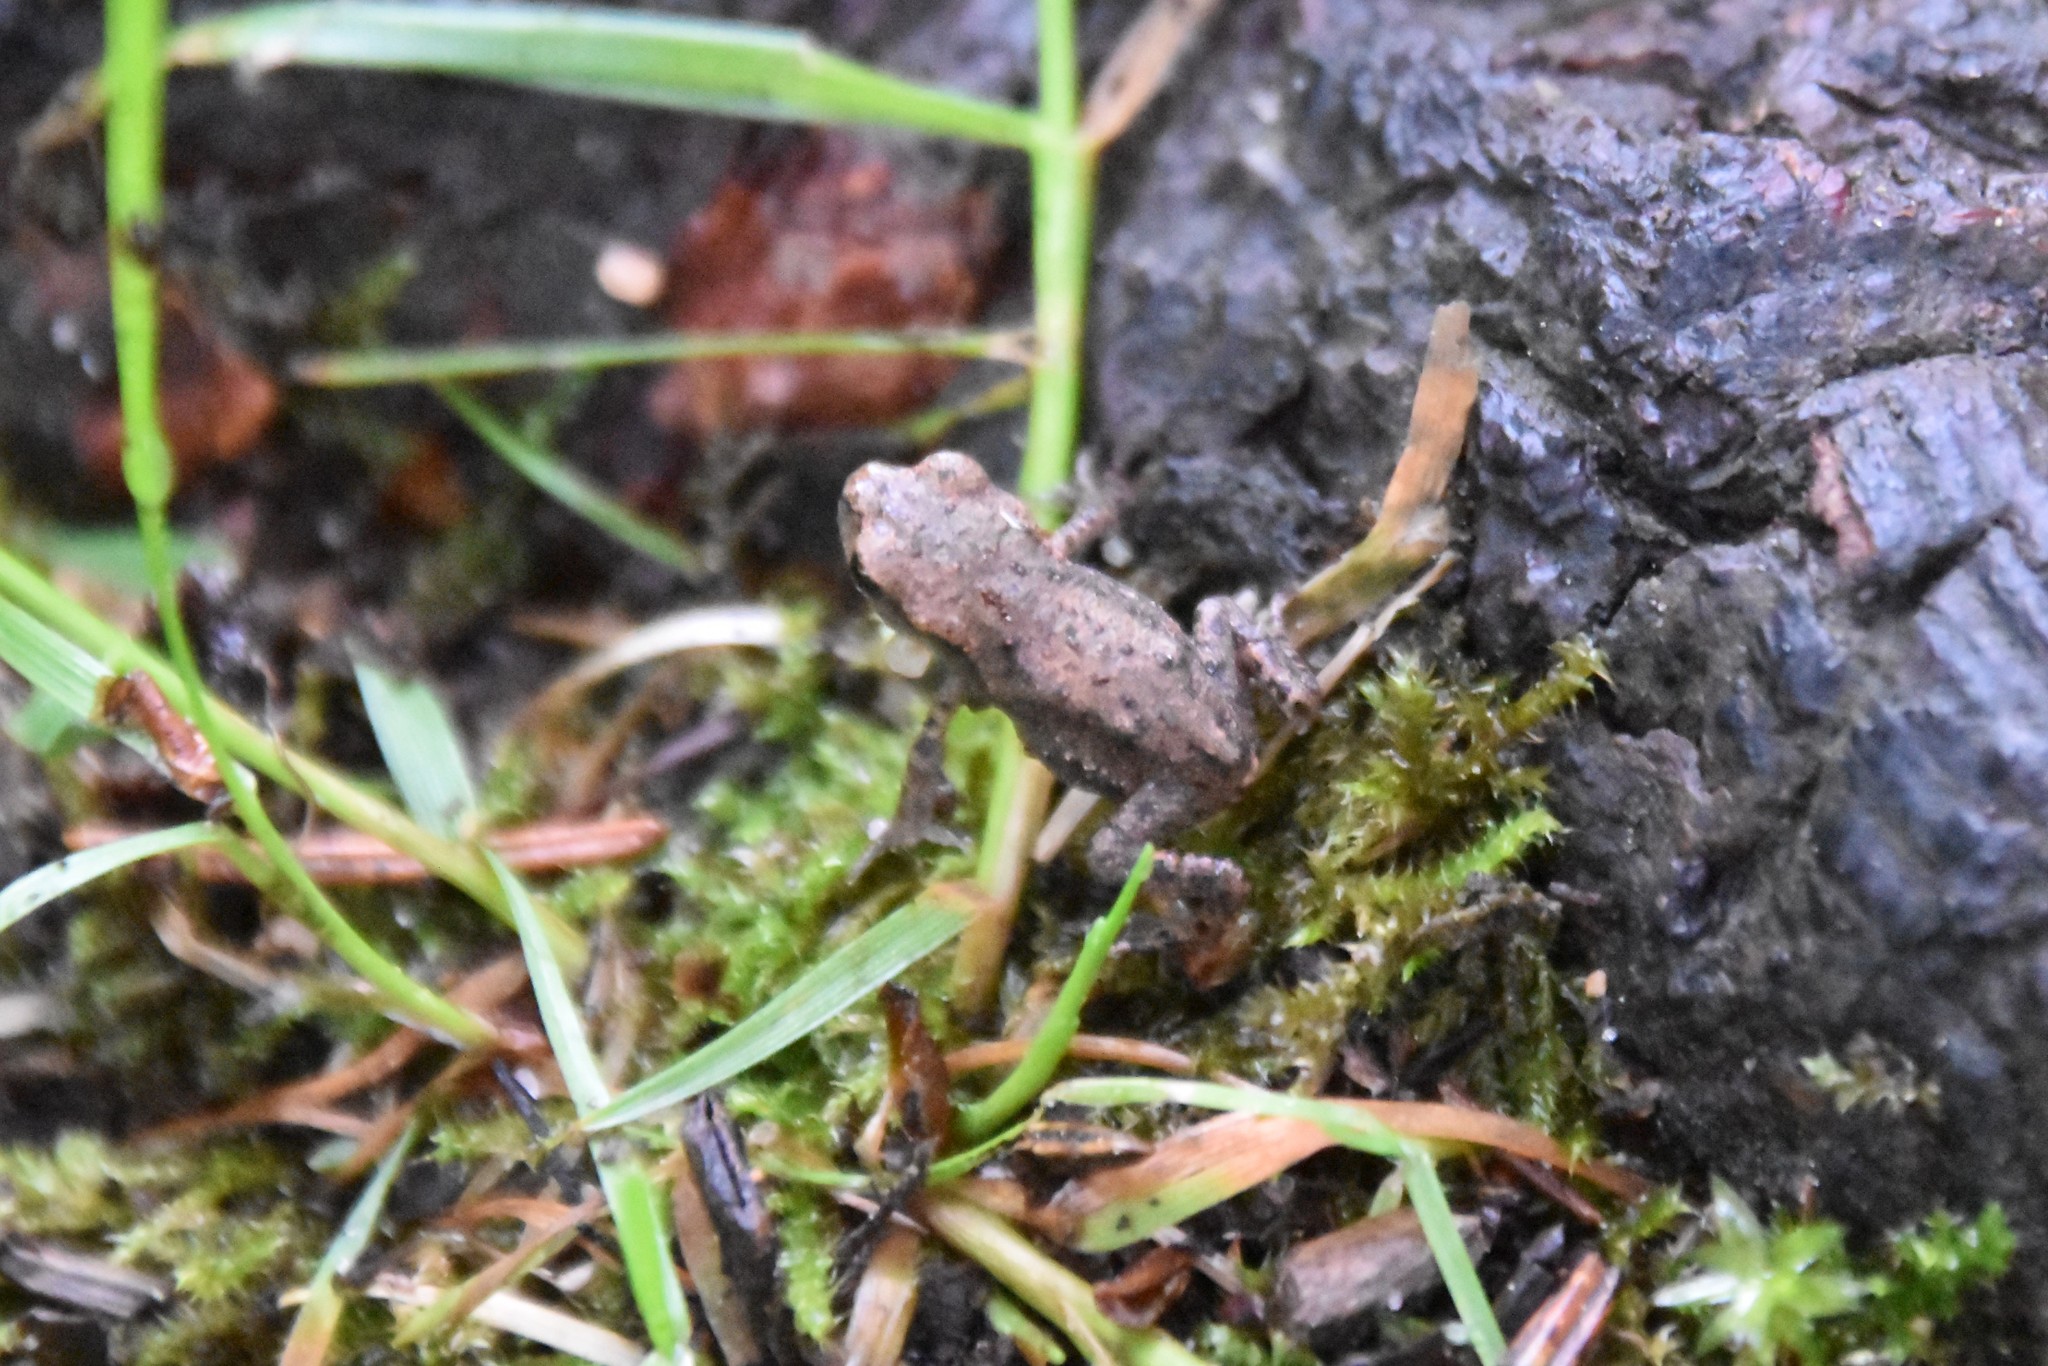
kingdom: Animalia
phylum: Chordata
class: Amphibia
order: Anura
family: Bufonidae
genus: Bufo
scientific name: Bufo bufo
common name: Common toad
